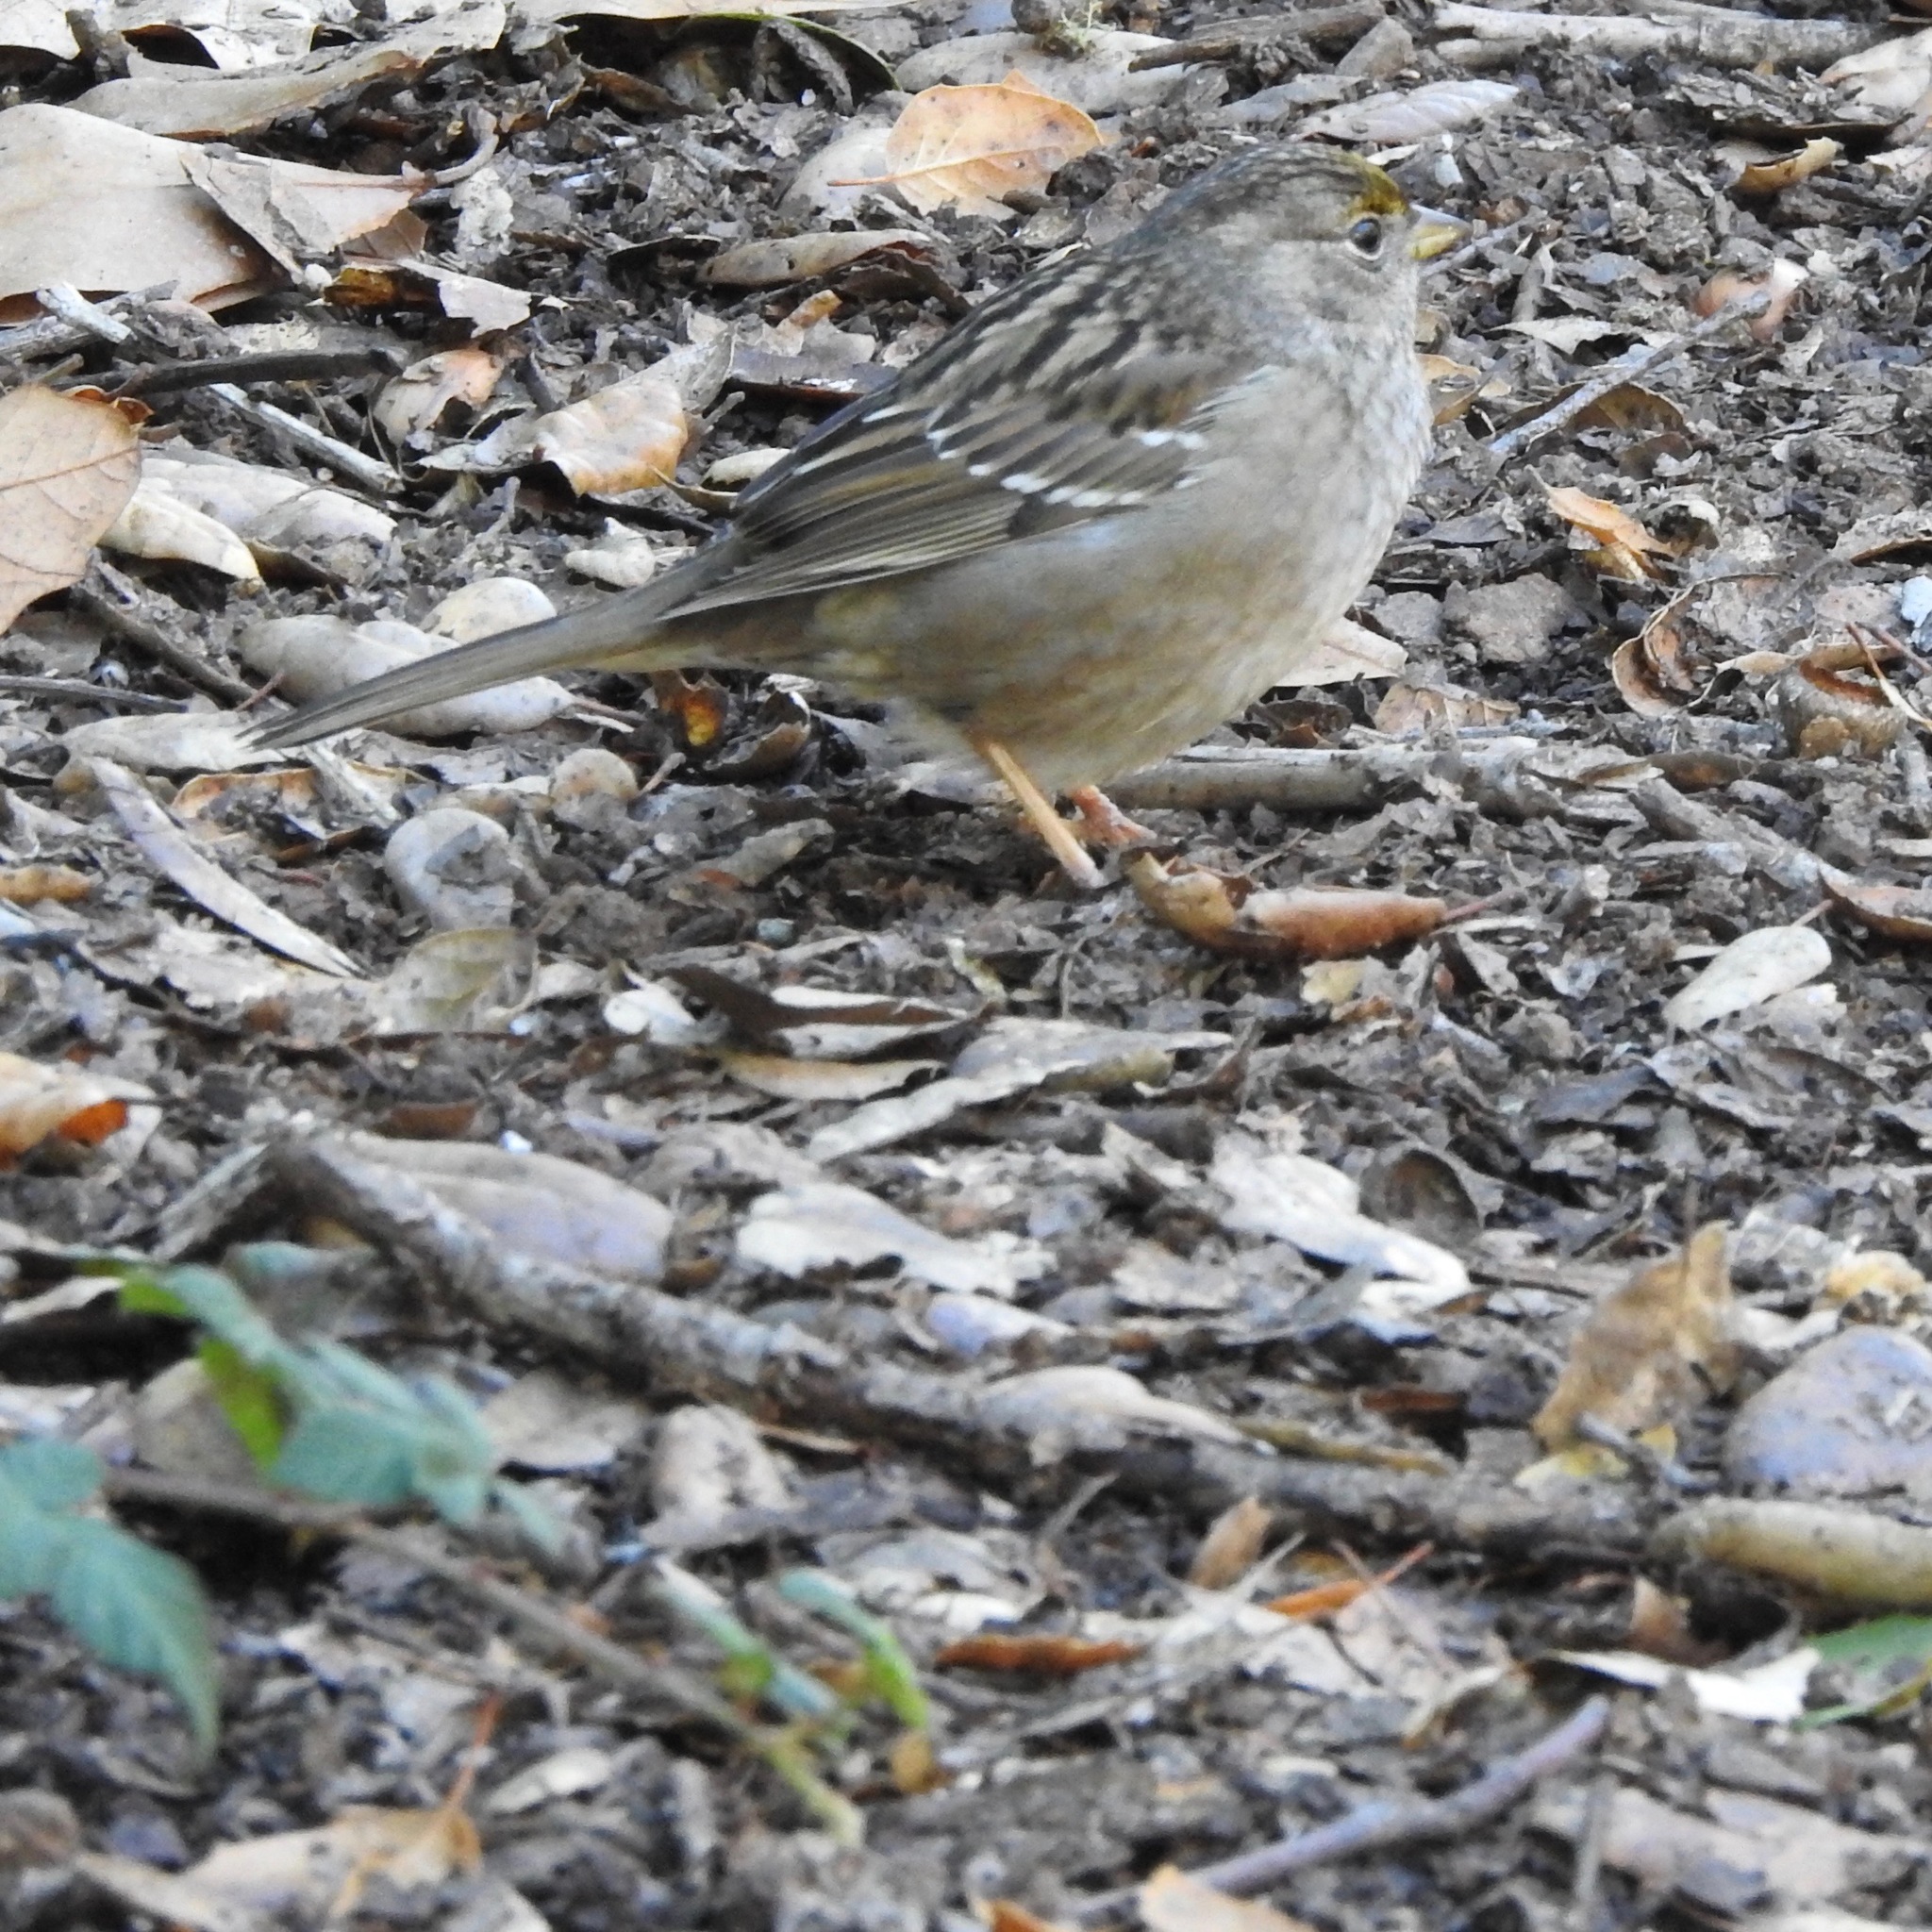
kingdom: Animalia
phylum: Chordata
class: Aves
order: Passeriformes
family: Passerellidae
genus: Zonotrichia
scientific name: Zonotrichia atricapilla
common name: Golden-crowned sparrow
